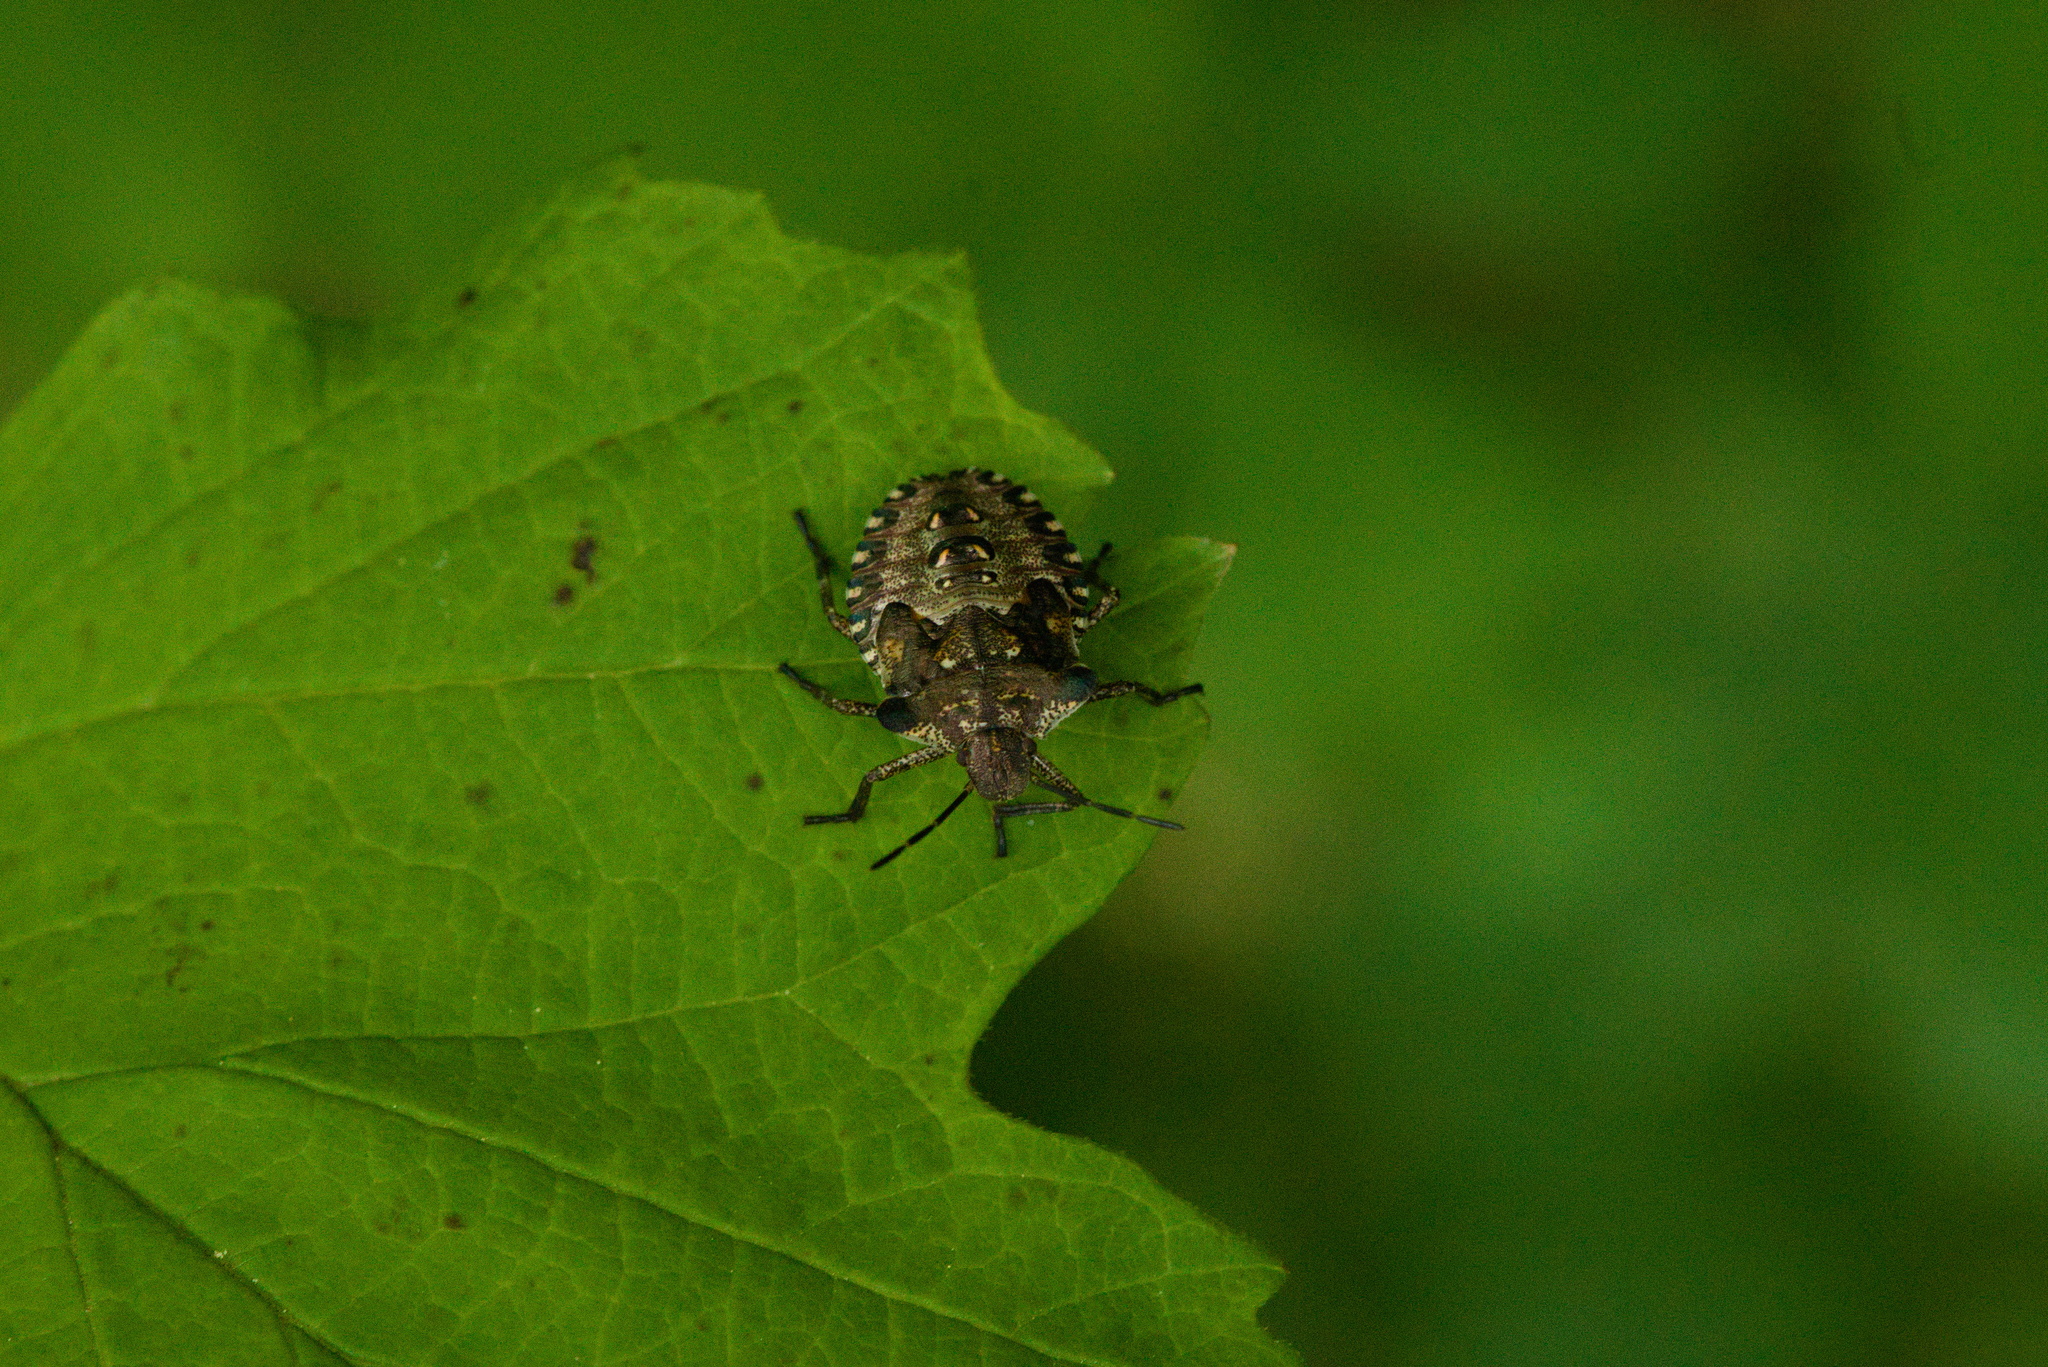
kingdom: Animalia
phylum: Arthropoda
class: Insecta
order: Hemiptera
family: Pentatomidae
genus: Pentatoma
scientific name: Pentatoma rufipes
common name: Forest bug
